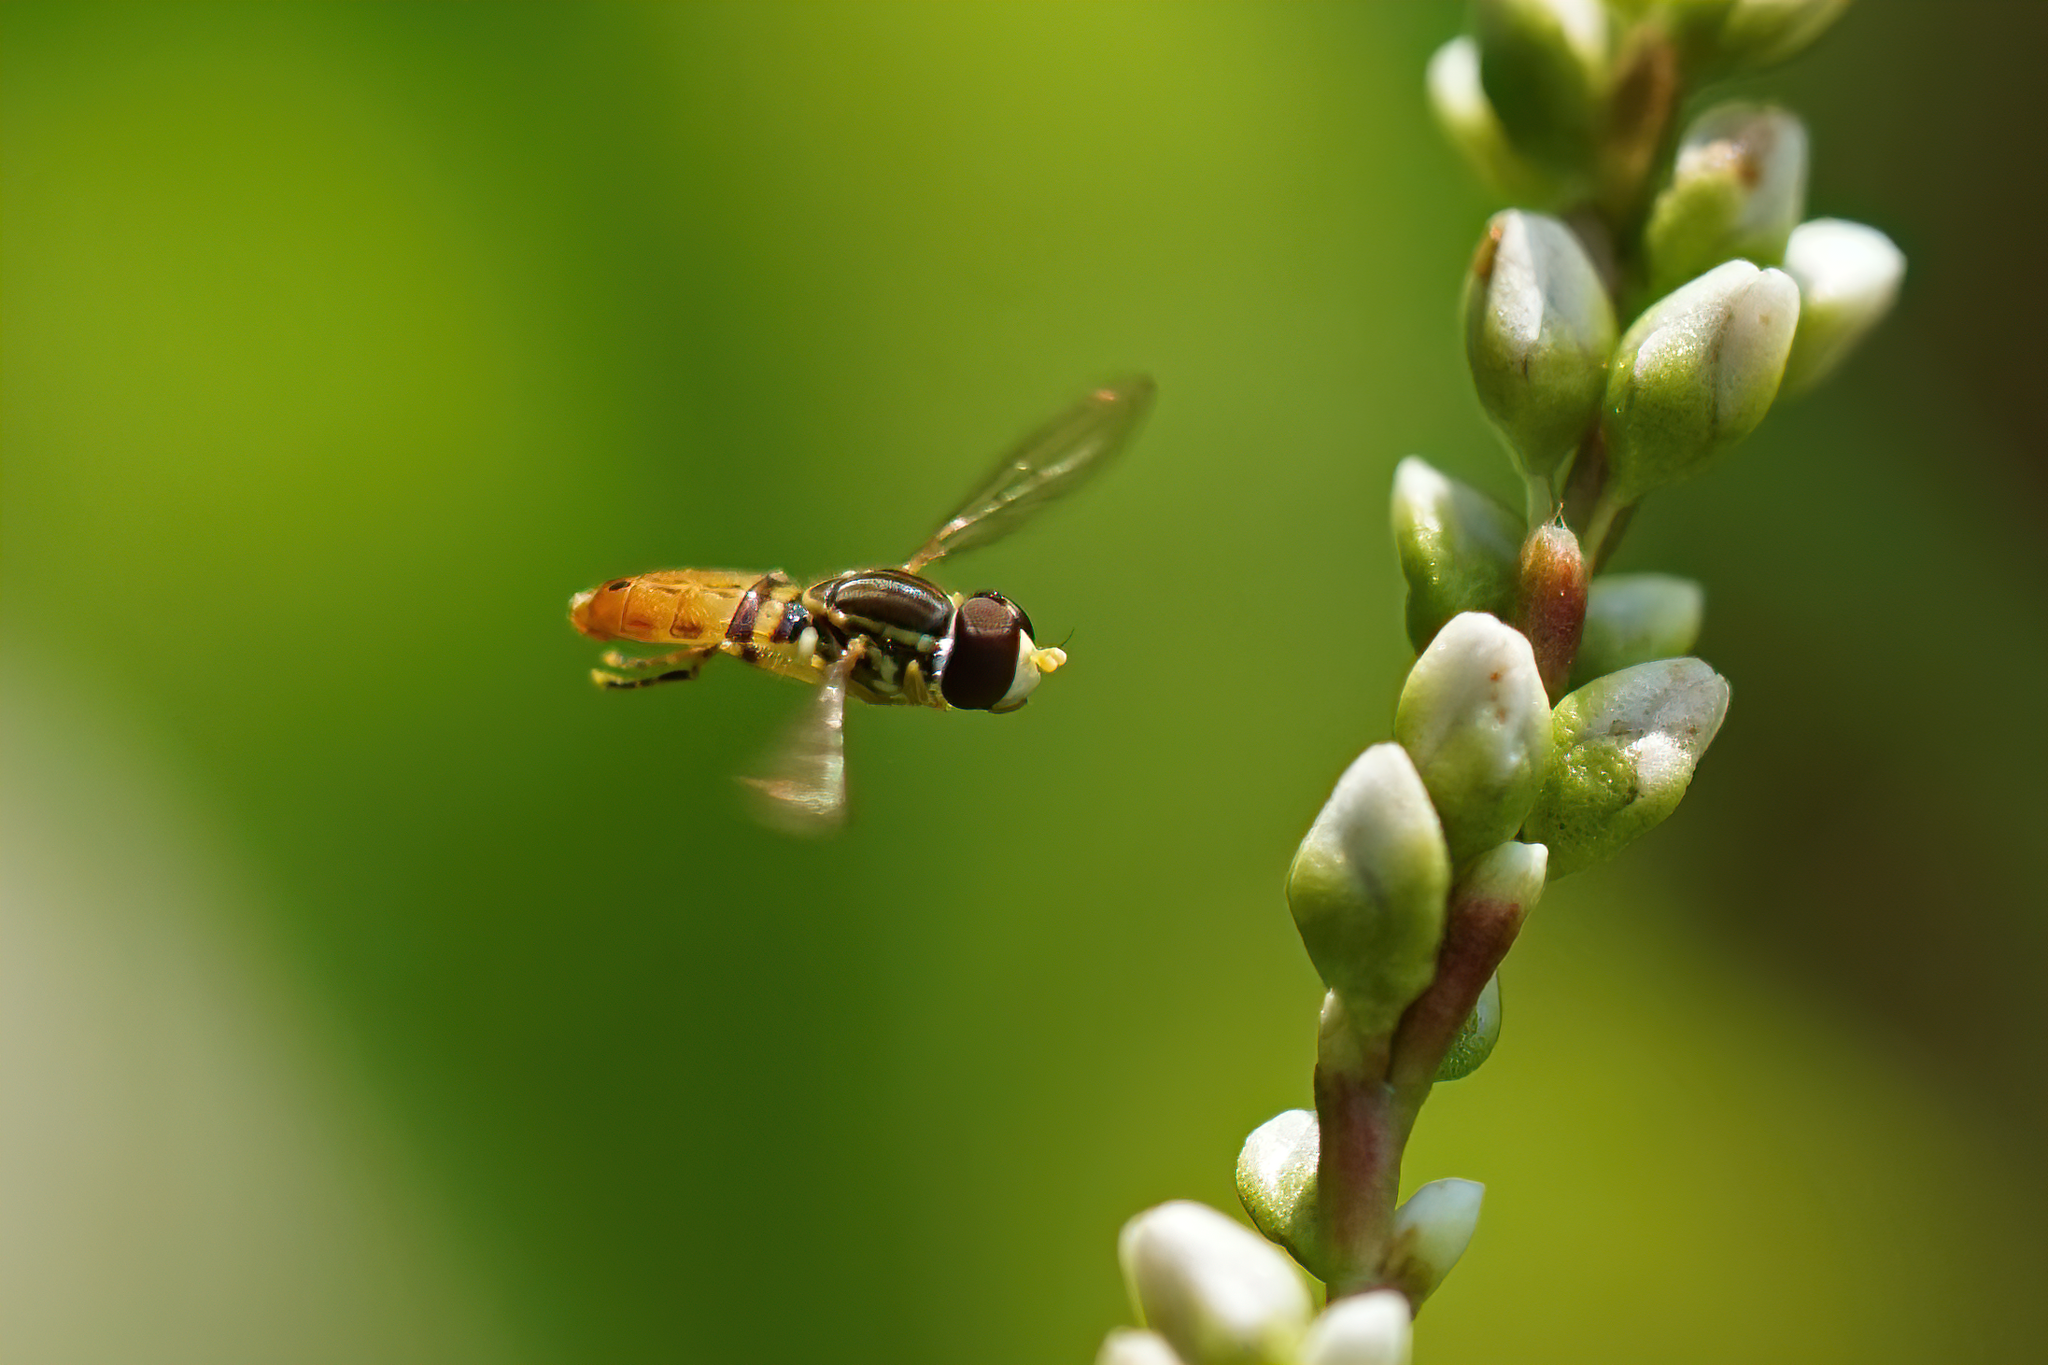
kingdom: Animalia
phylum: Arthropoda
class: Insecta
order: Diptera
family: Syrphidae
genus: Toxomerus
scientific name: Toxomerus floralis
